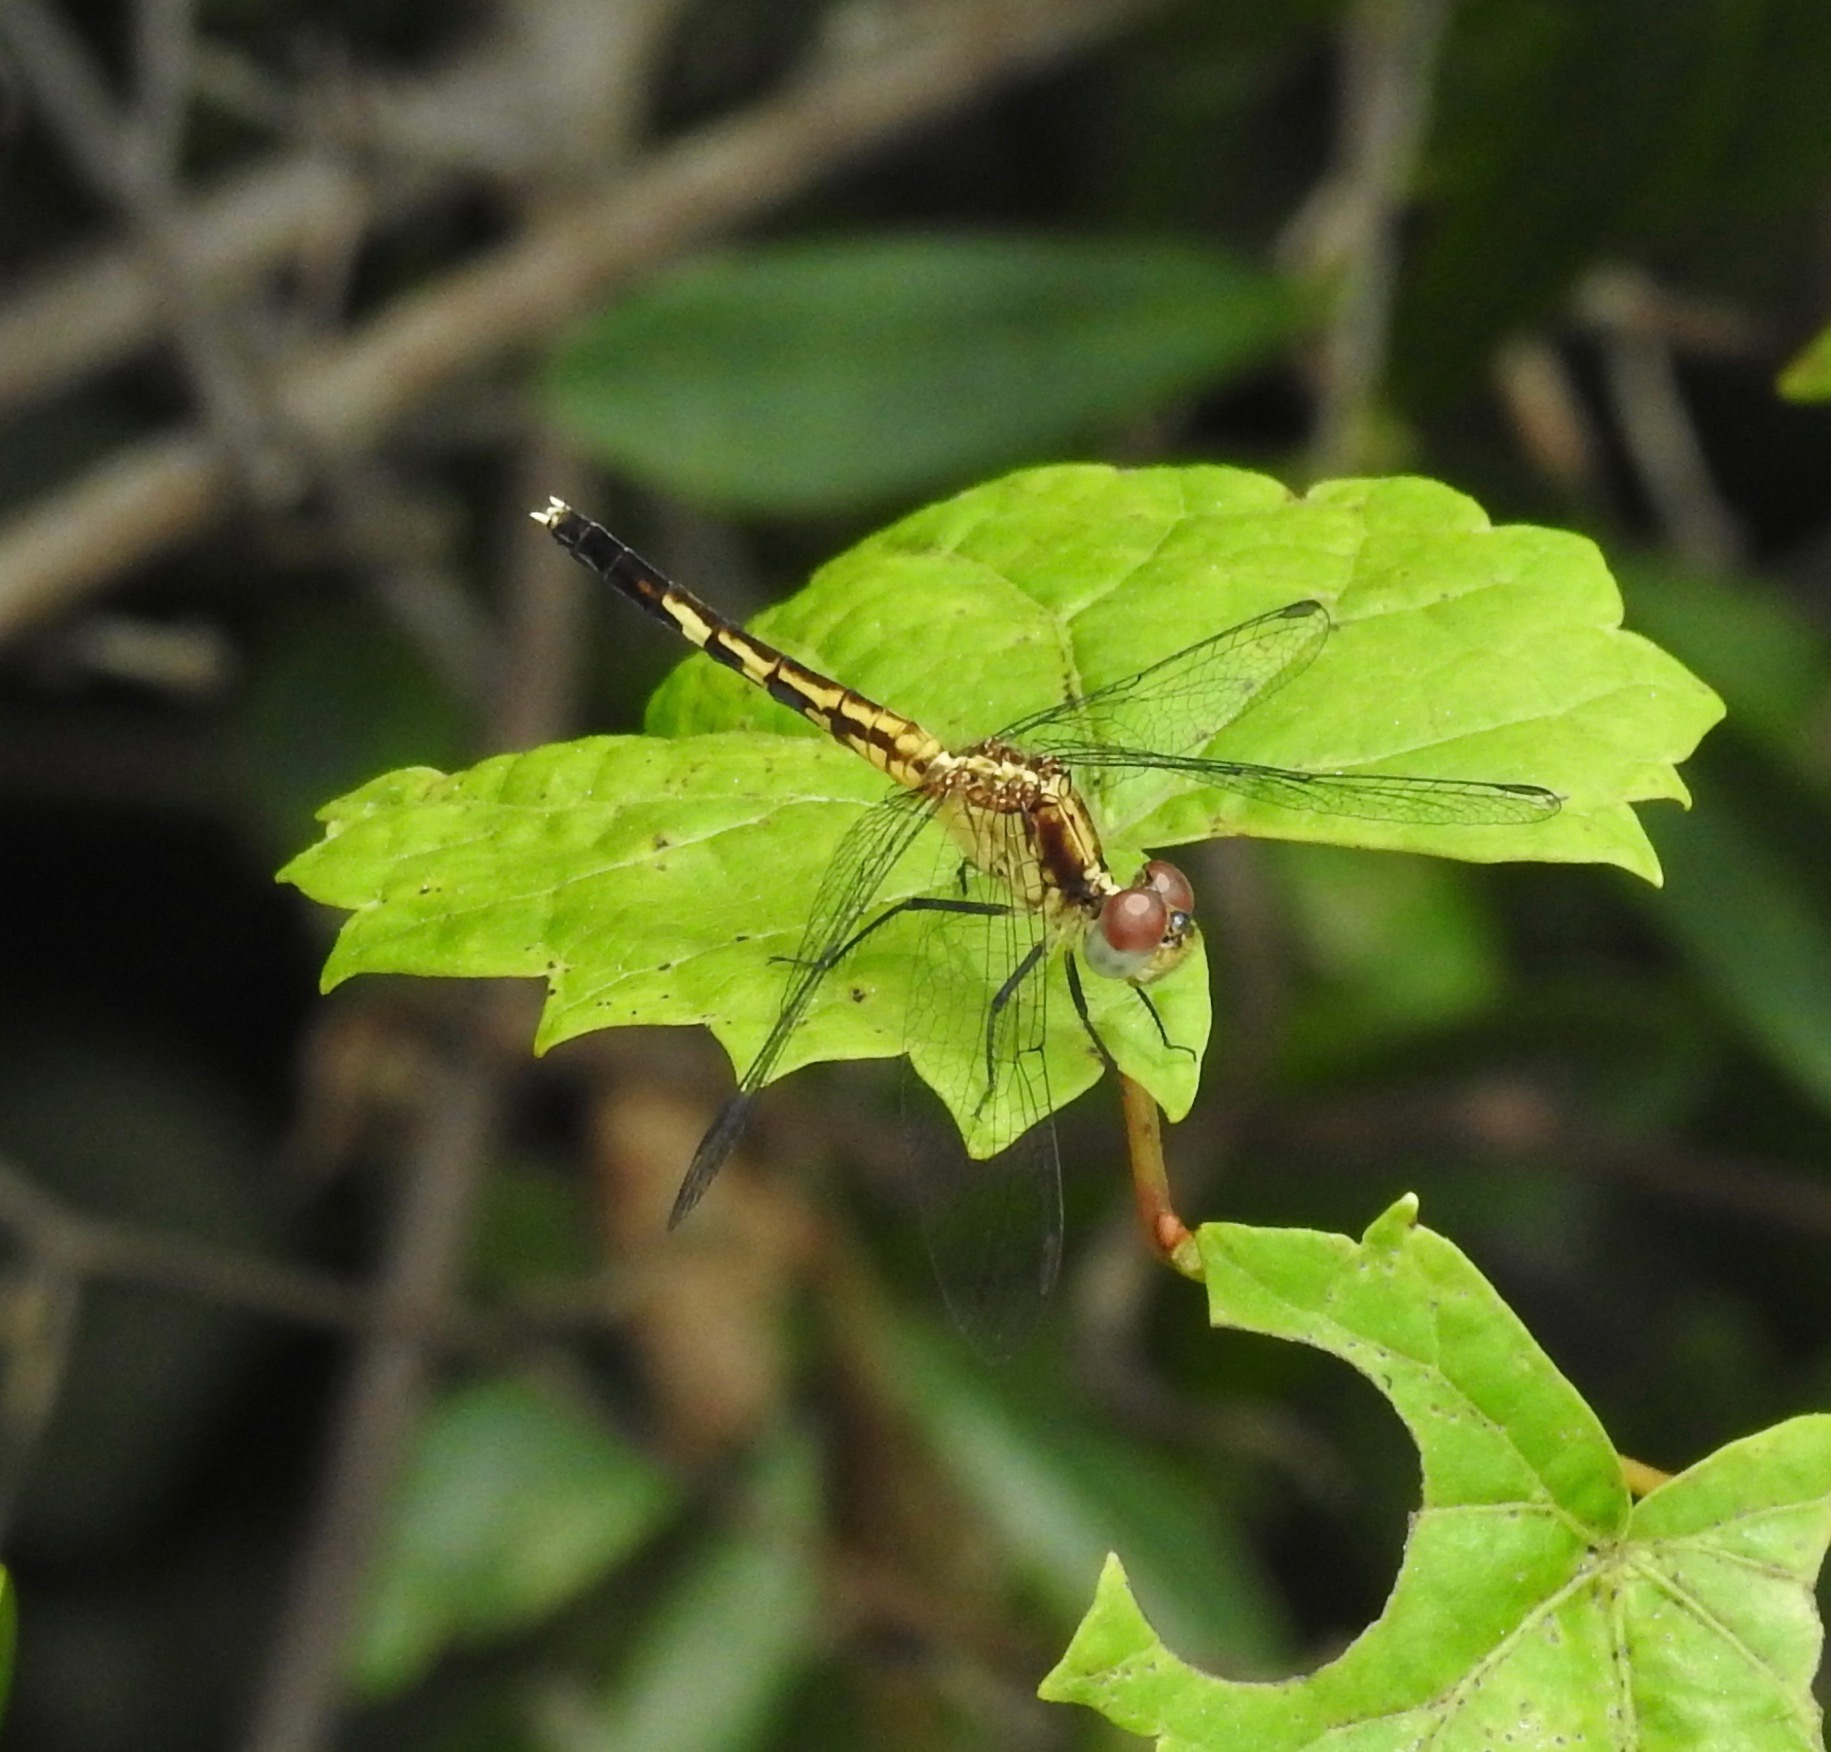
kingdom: Animalia
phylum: Arthropoda
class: Insecta
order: Odonata
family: Libellulidae
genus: Erythrodiplax
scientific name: Erythrodiplax minuscula
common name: Little blue dragonlet
